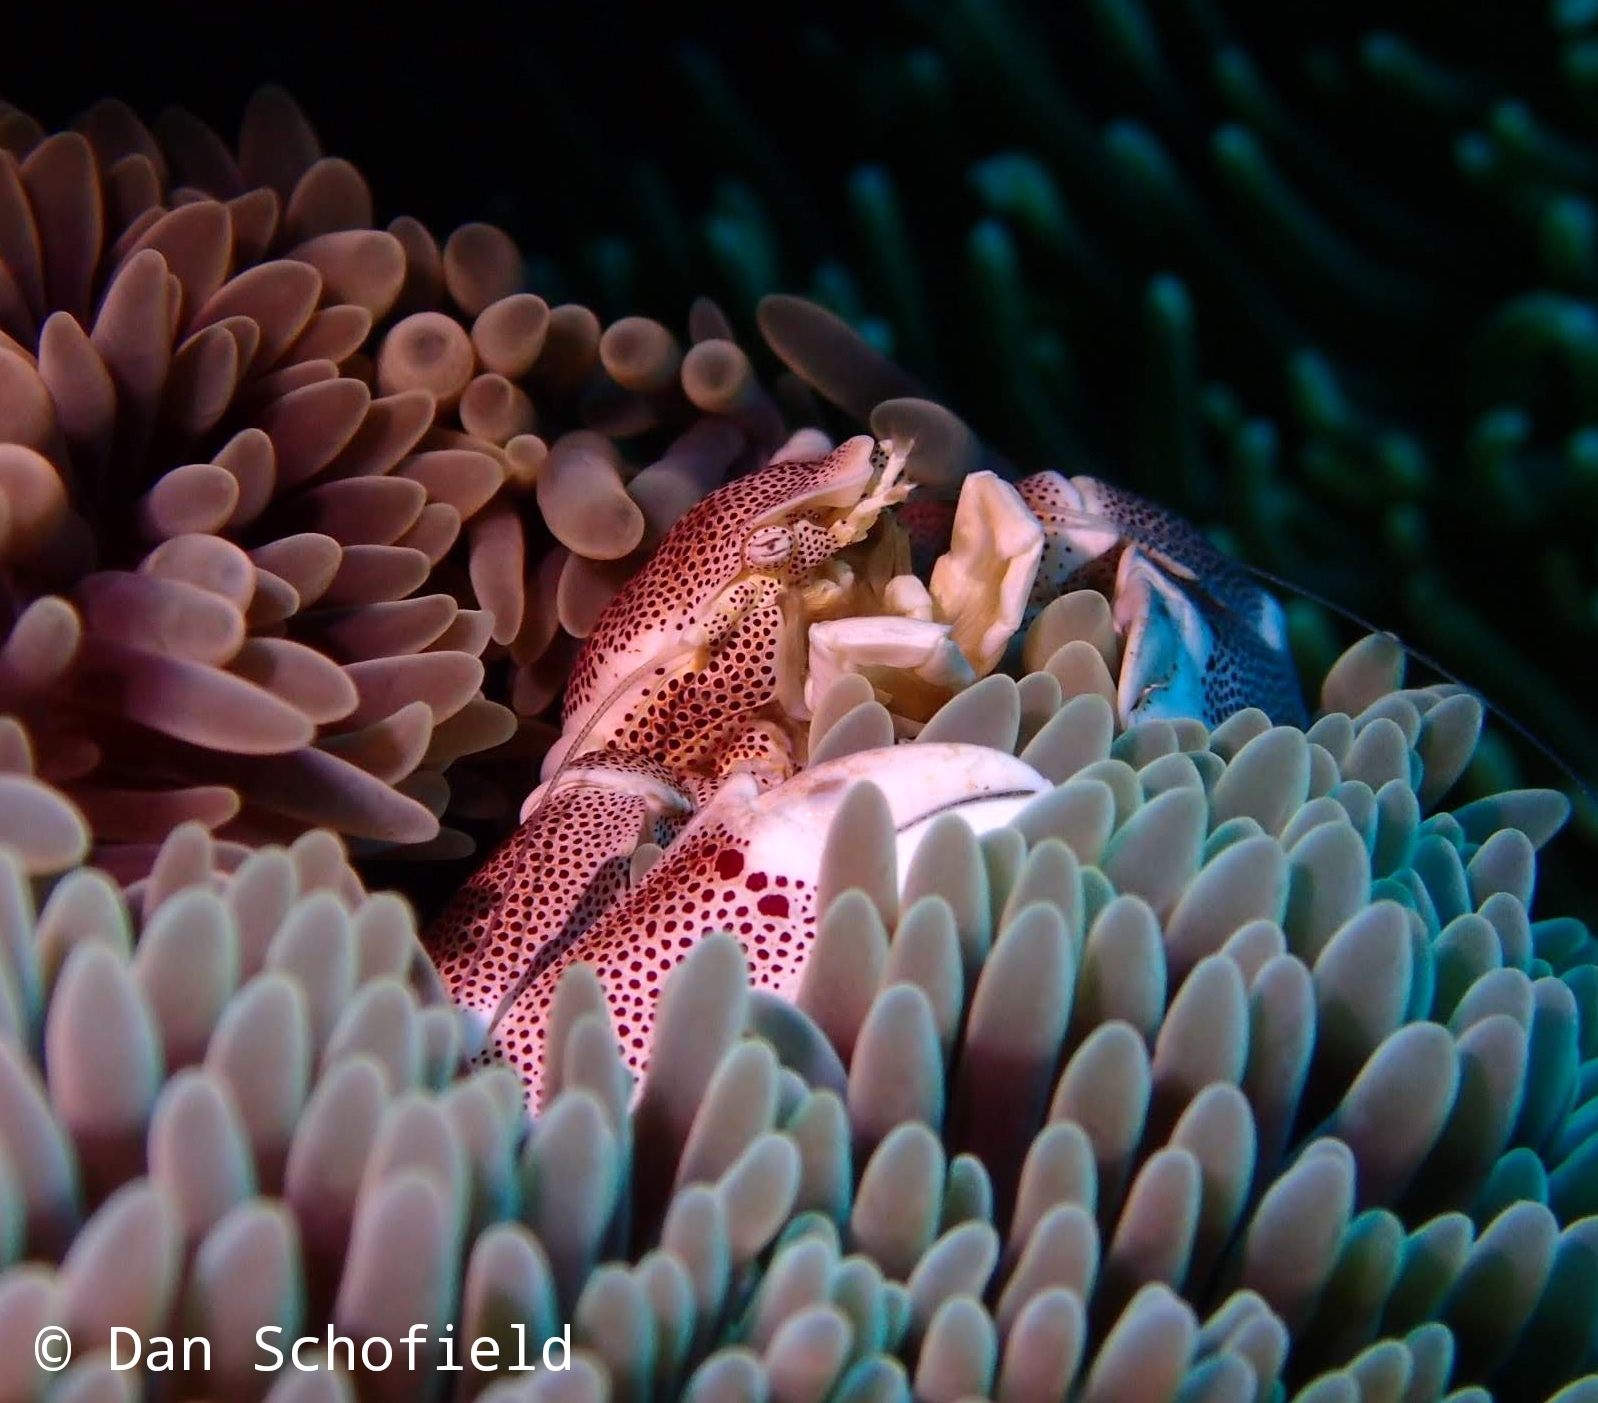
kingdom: Animalia
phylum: Arthropoda
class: Malacostraca
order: Decapoda
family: Porcellanidae
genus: Neopetrolisthes
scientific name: Neopetrolisthes maculatus
